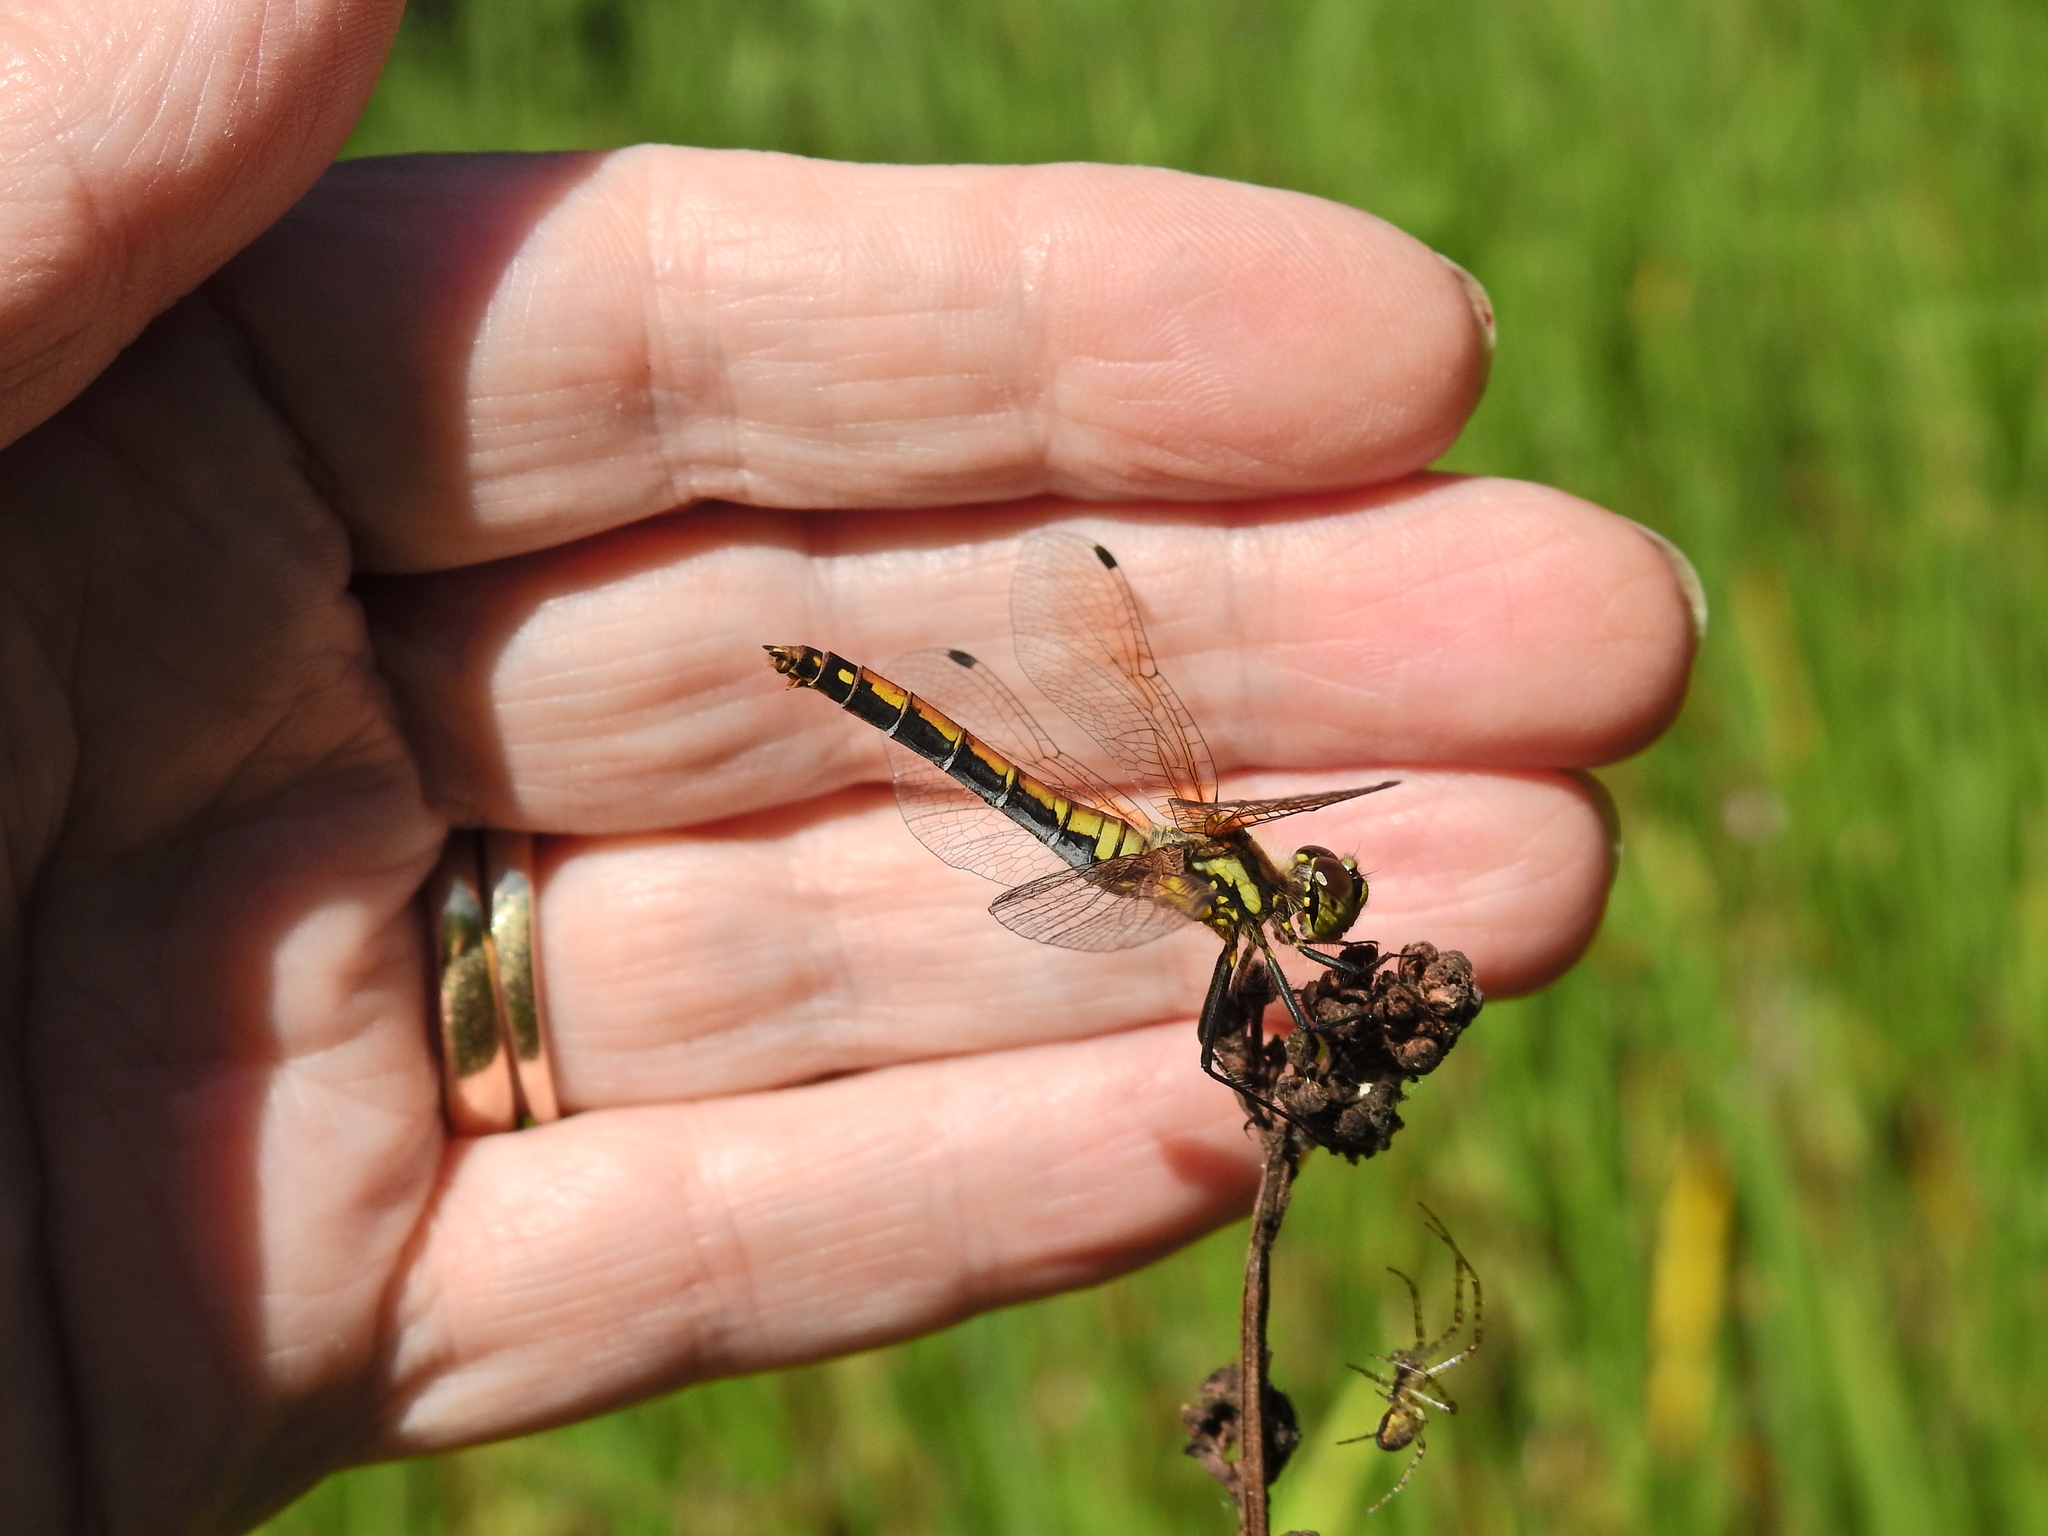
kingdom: Animalia
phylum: Arthropoda
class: Insecta
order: Odonata
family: Libellulidae
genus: Sympetrum
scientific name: Sympetrum danae
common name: Black darter
